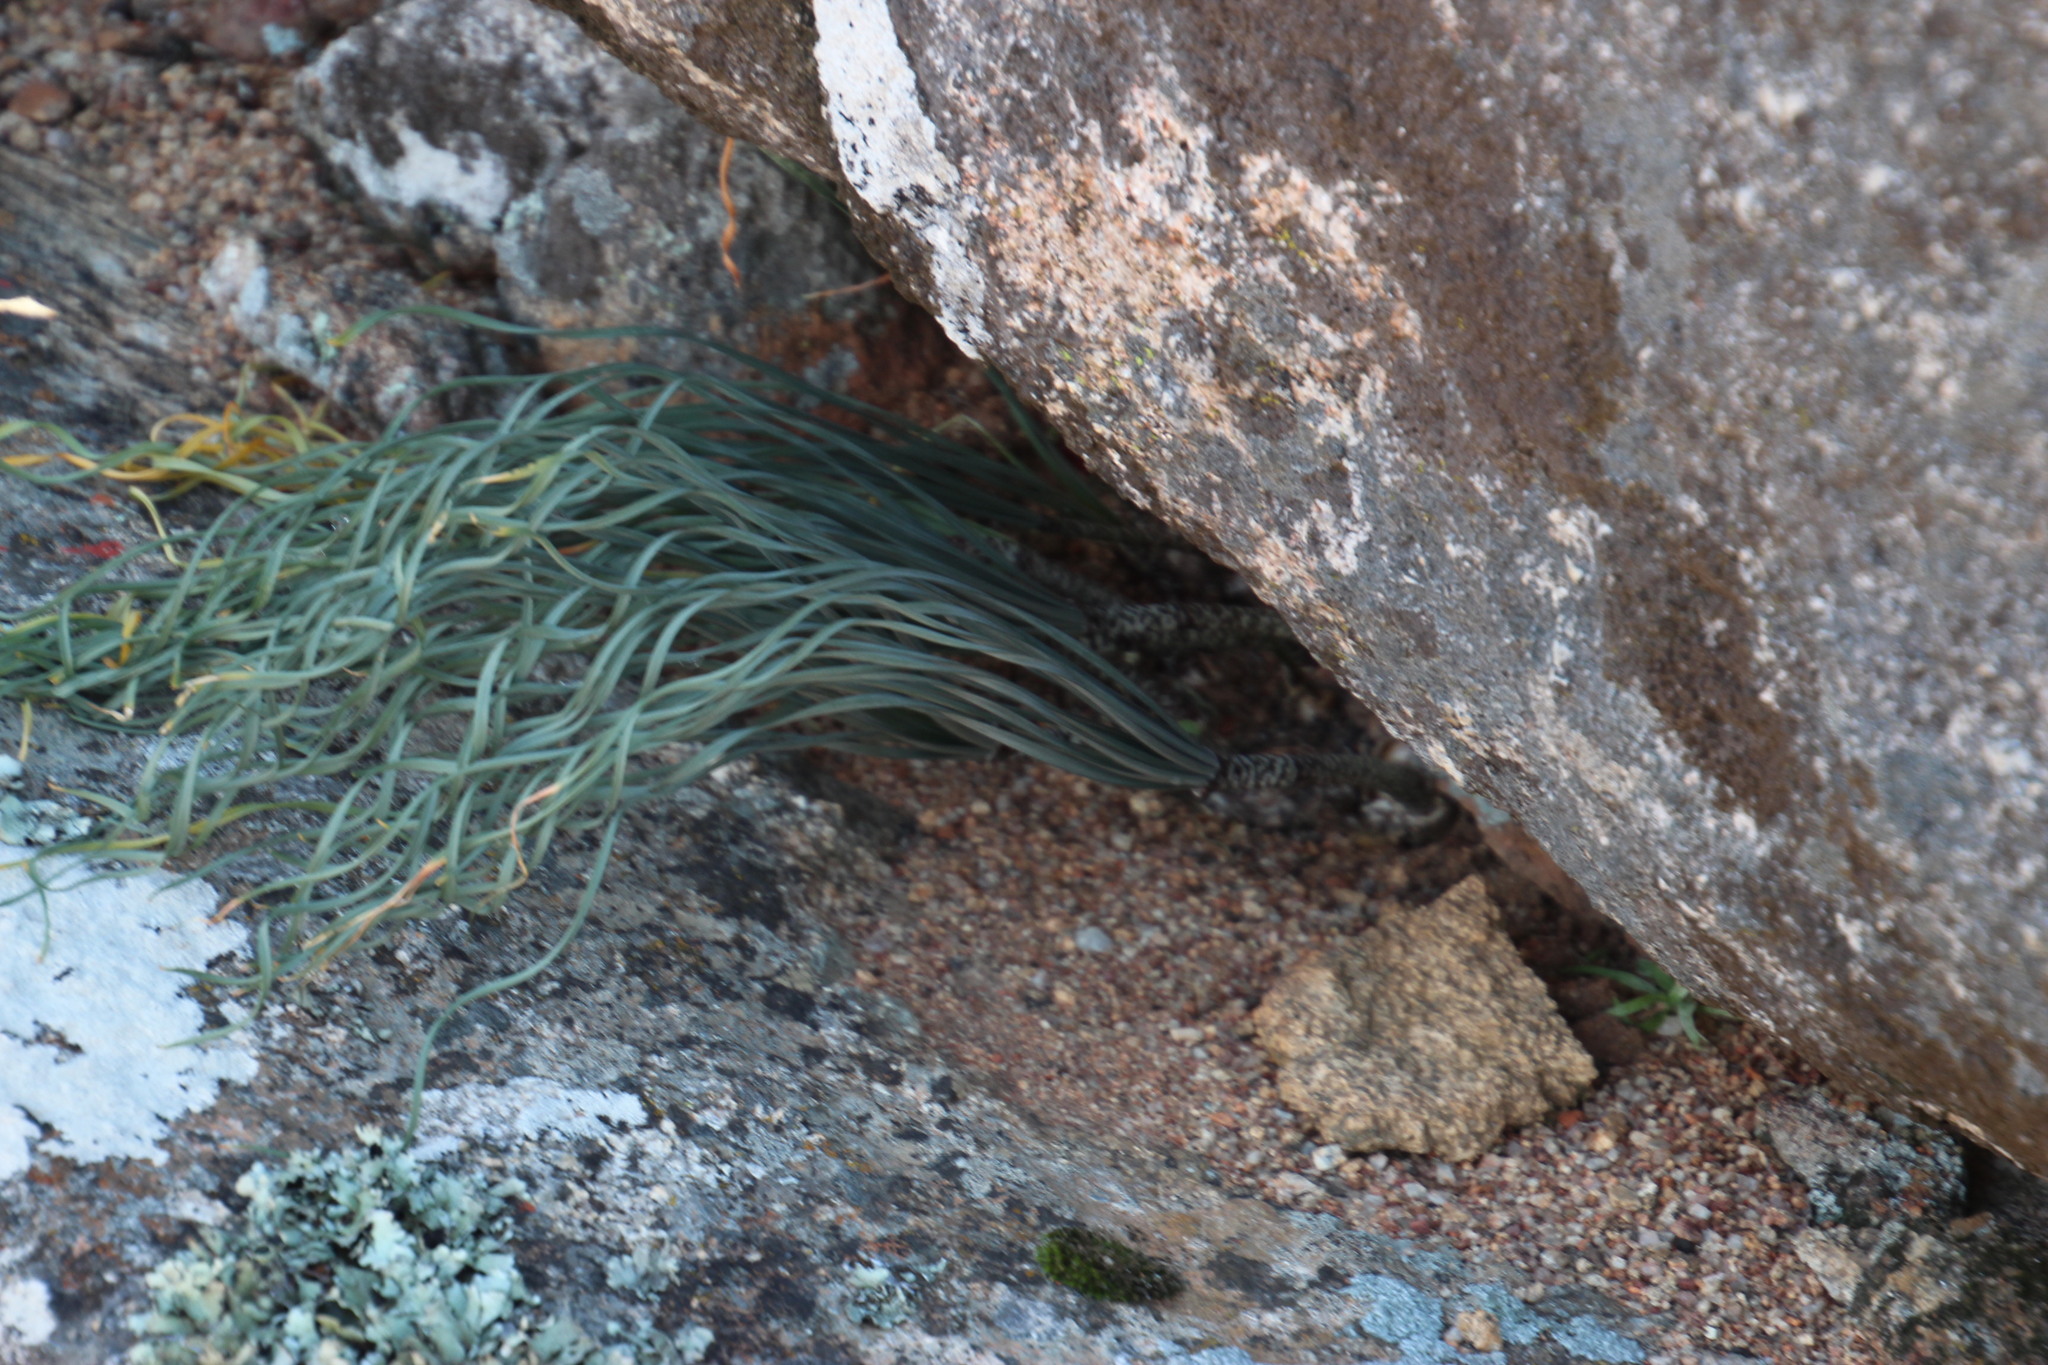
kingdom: Plantae
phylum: Tracheophyta
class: Liliopsida
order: Asparagales
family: Amaryllidaceae
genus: Gethyllis
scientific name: Gethyllis britteniana
